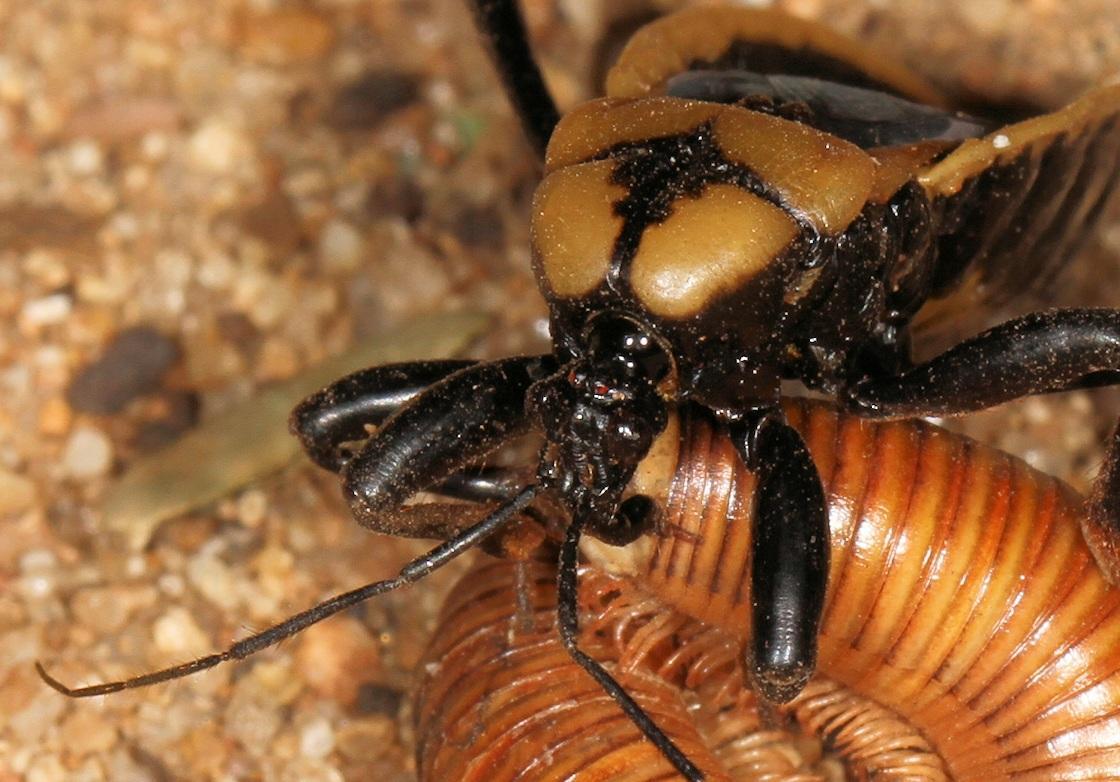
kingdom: Animalia
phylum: Arthropoda
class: Insecta
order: Hemiptera
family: Reduviidae
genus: Ectrichodia
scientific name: Ectrichodia crux
